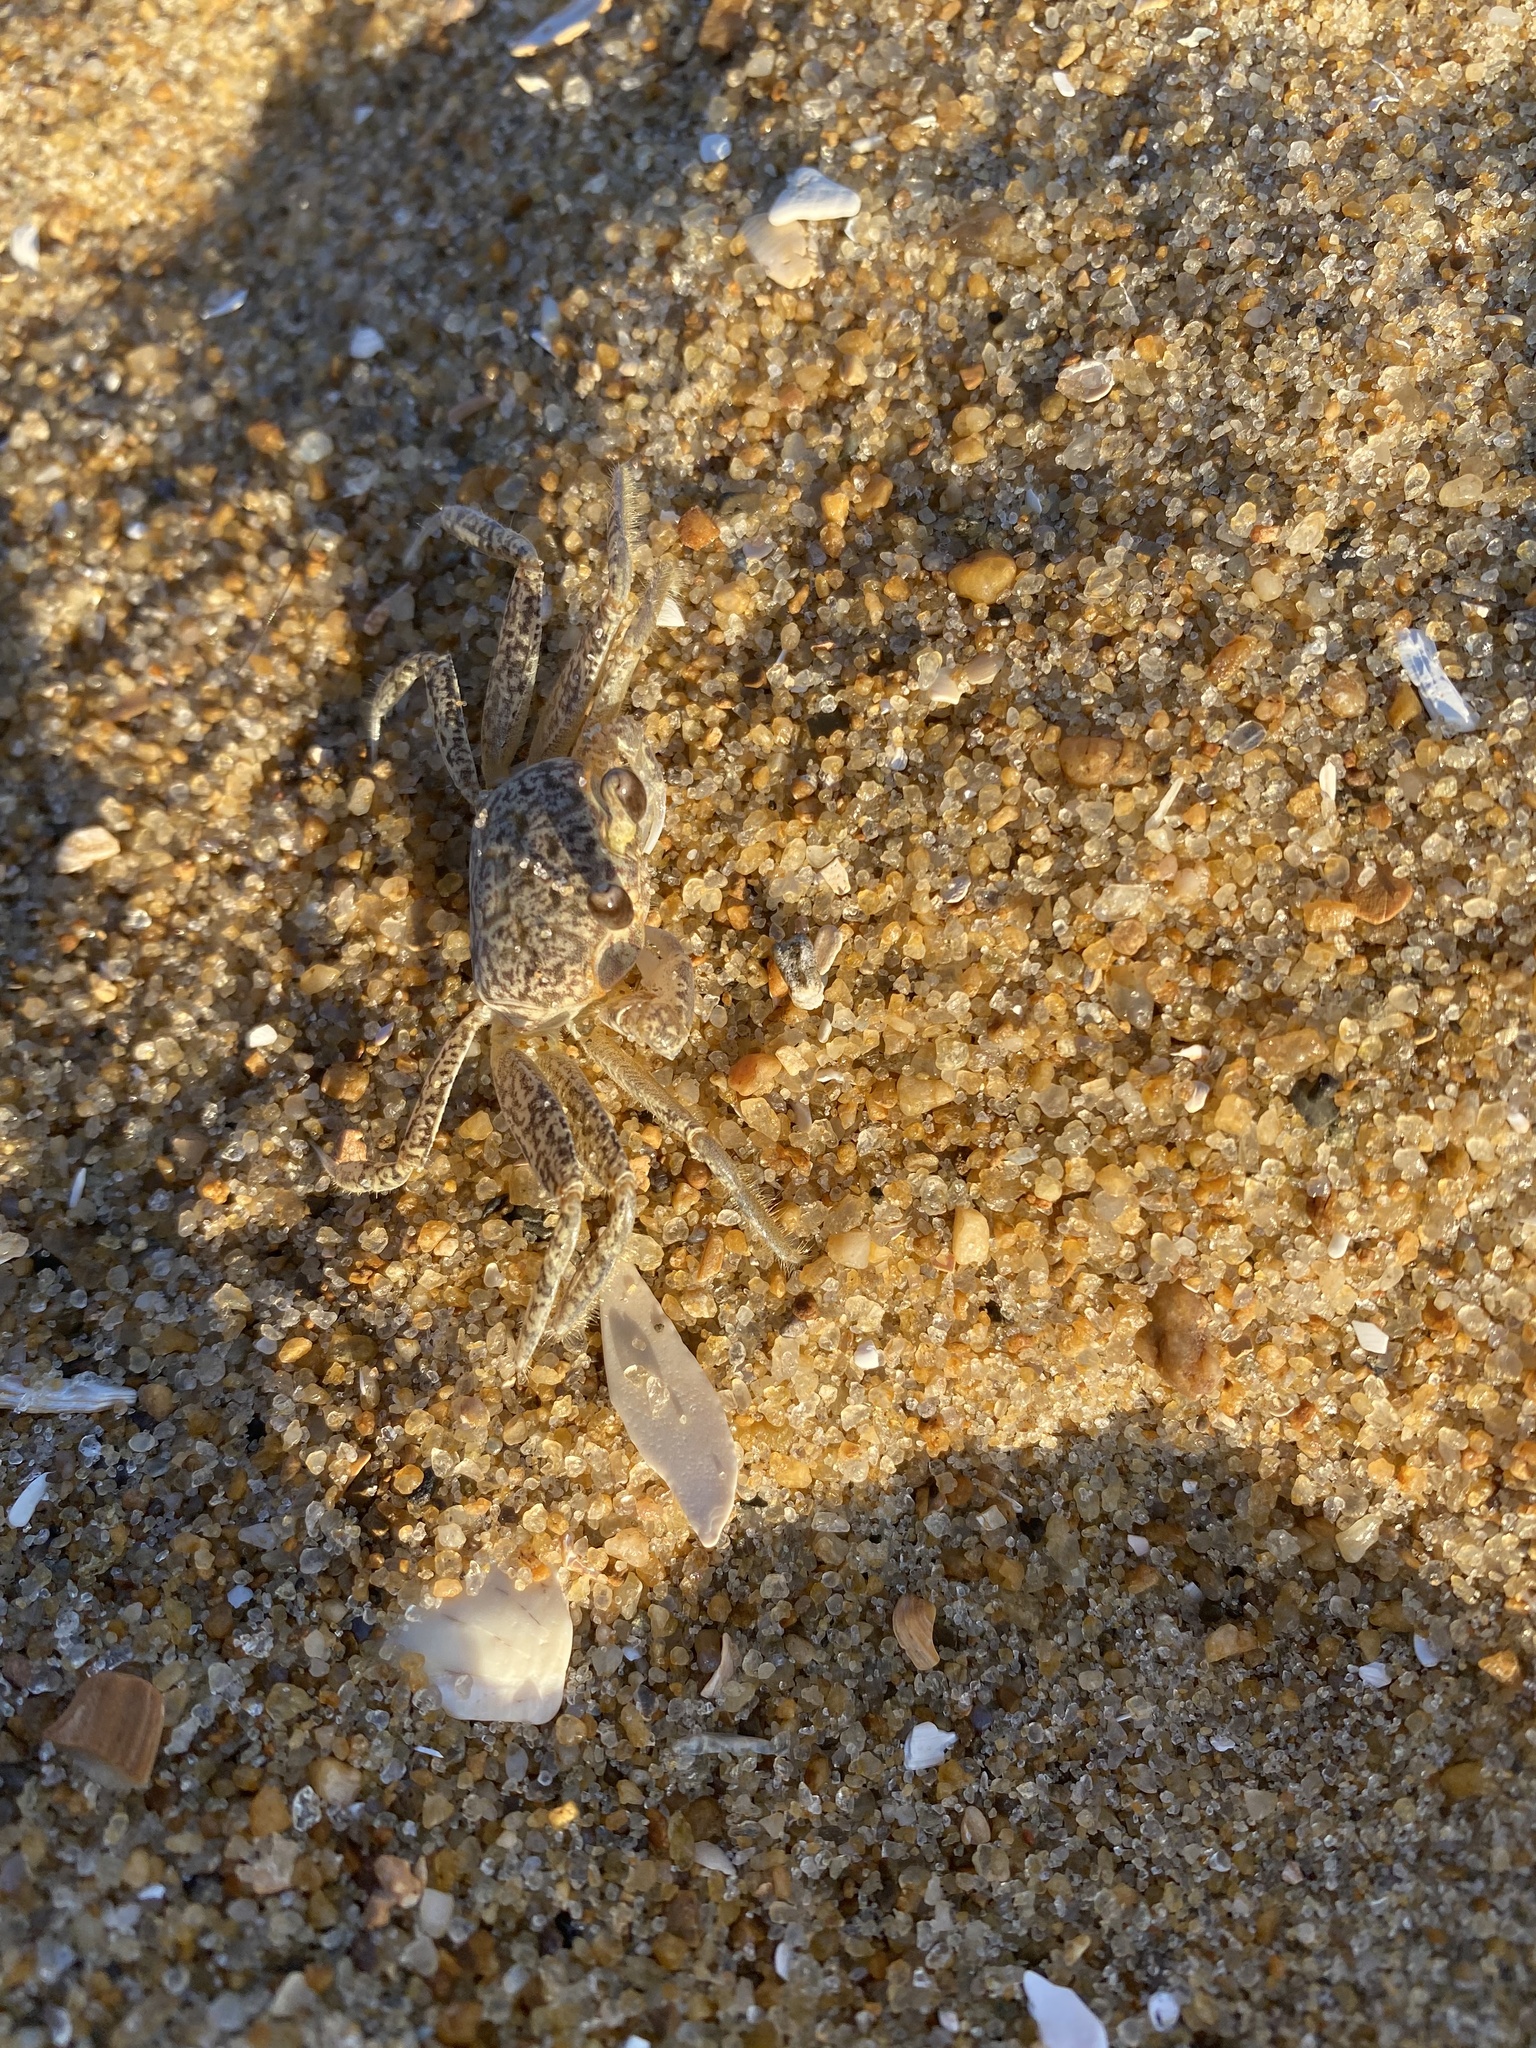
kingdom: Animalia
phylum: Arthropoda
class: Malacostraca
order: Decapoda
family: Ocypodidae
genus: Ocypode
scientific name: Ocypode quadrata
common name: Ghost crab
